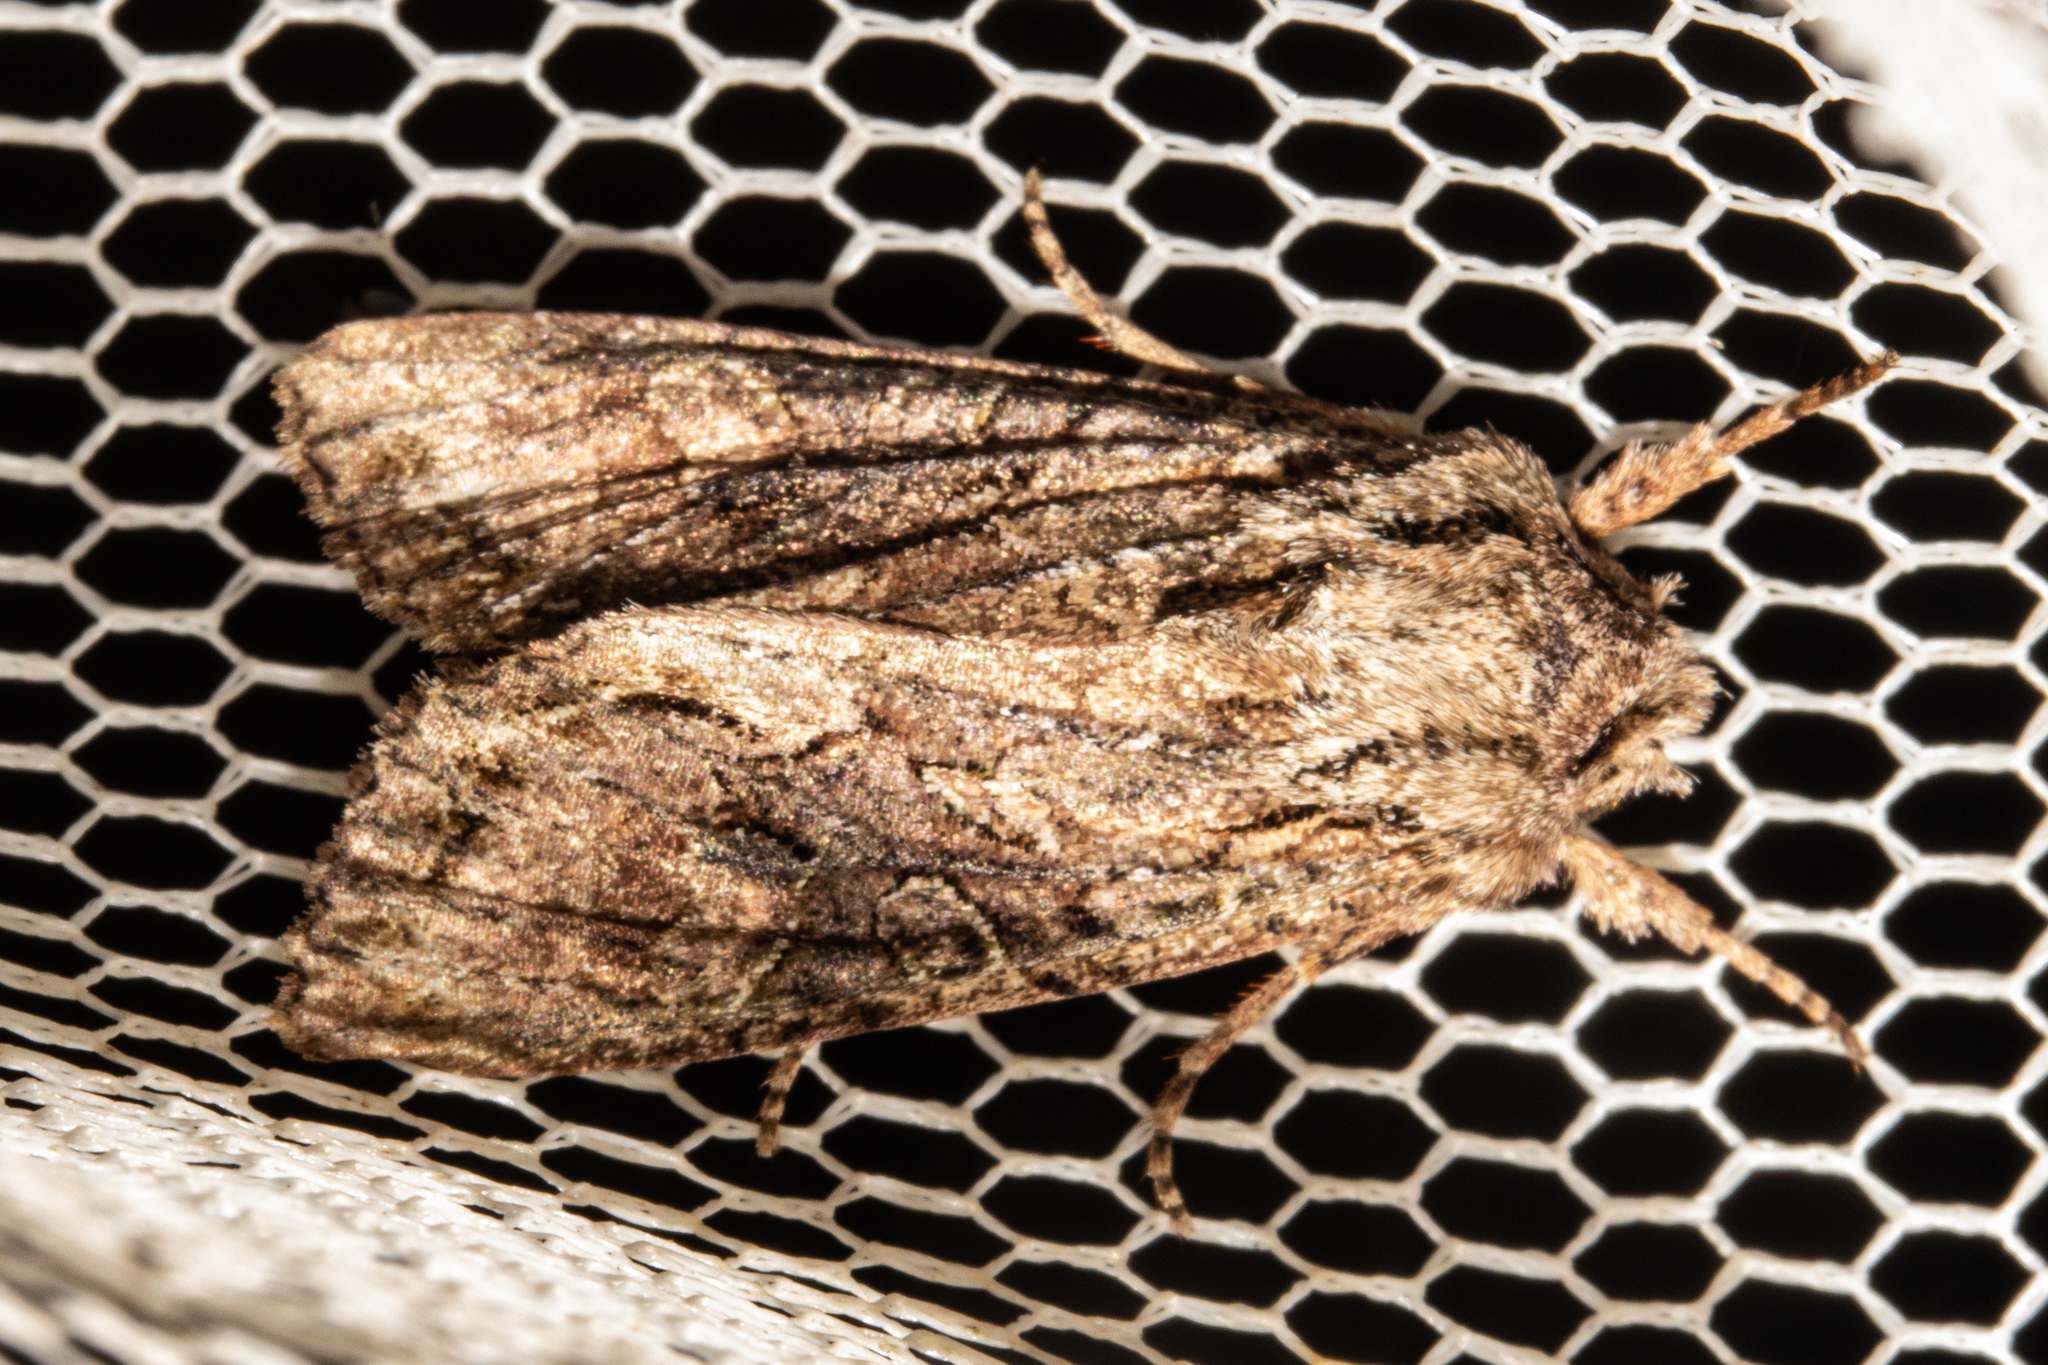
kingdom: Animalia
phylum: Arthropoda
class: Insecta
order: Lepidoptera
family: Noctuidae
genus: Ichneutica
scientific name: Ichneutica mutans
